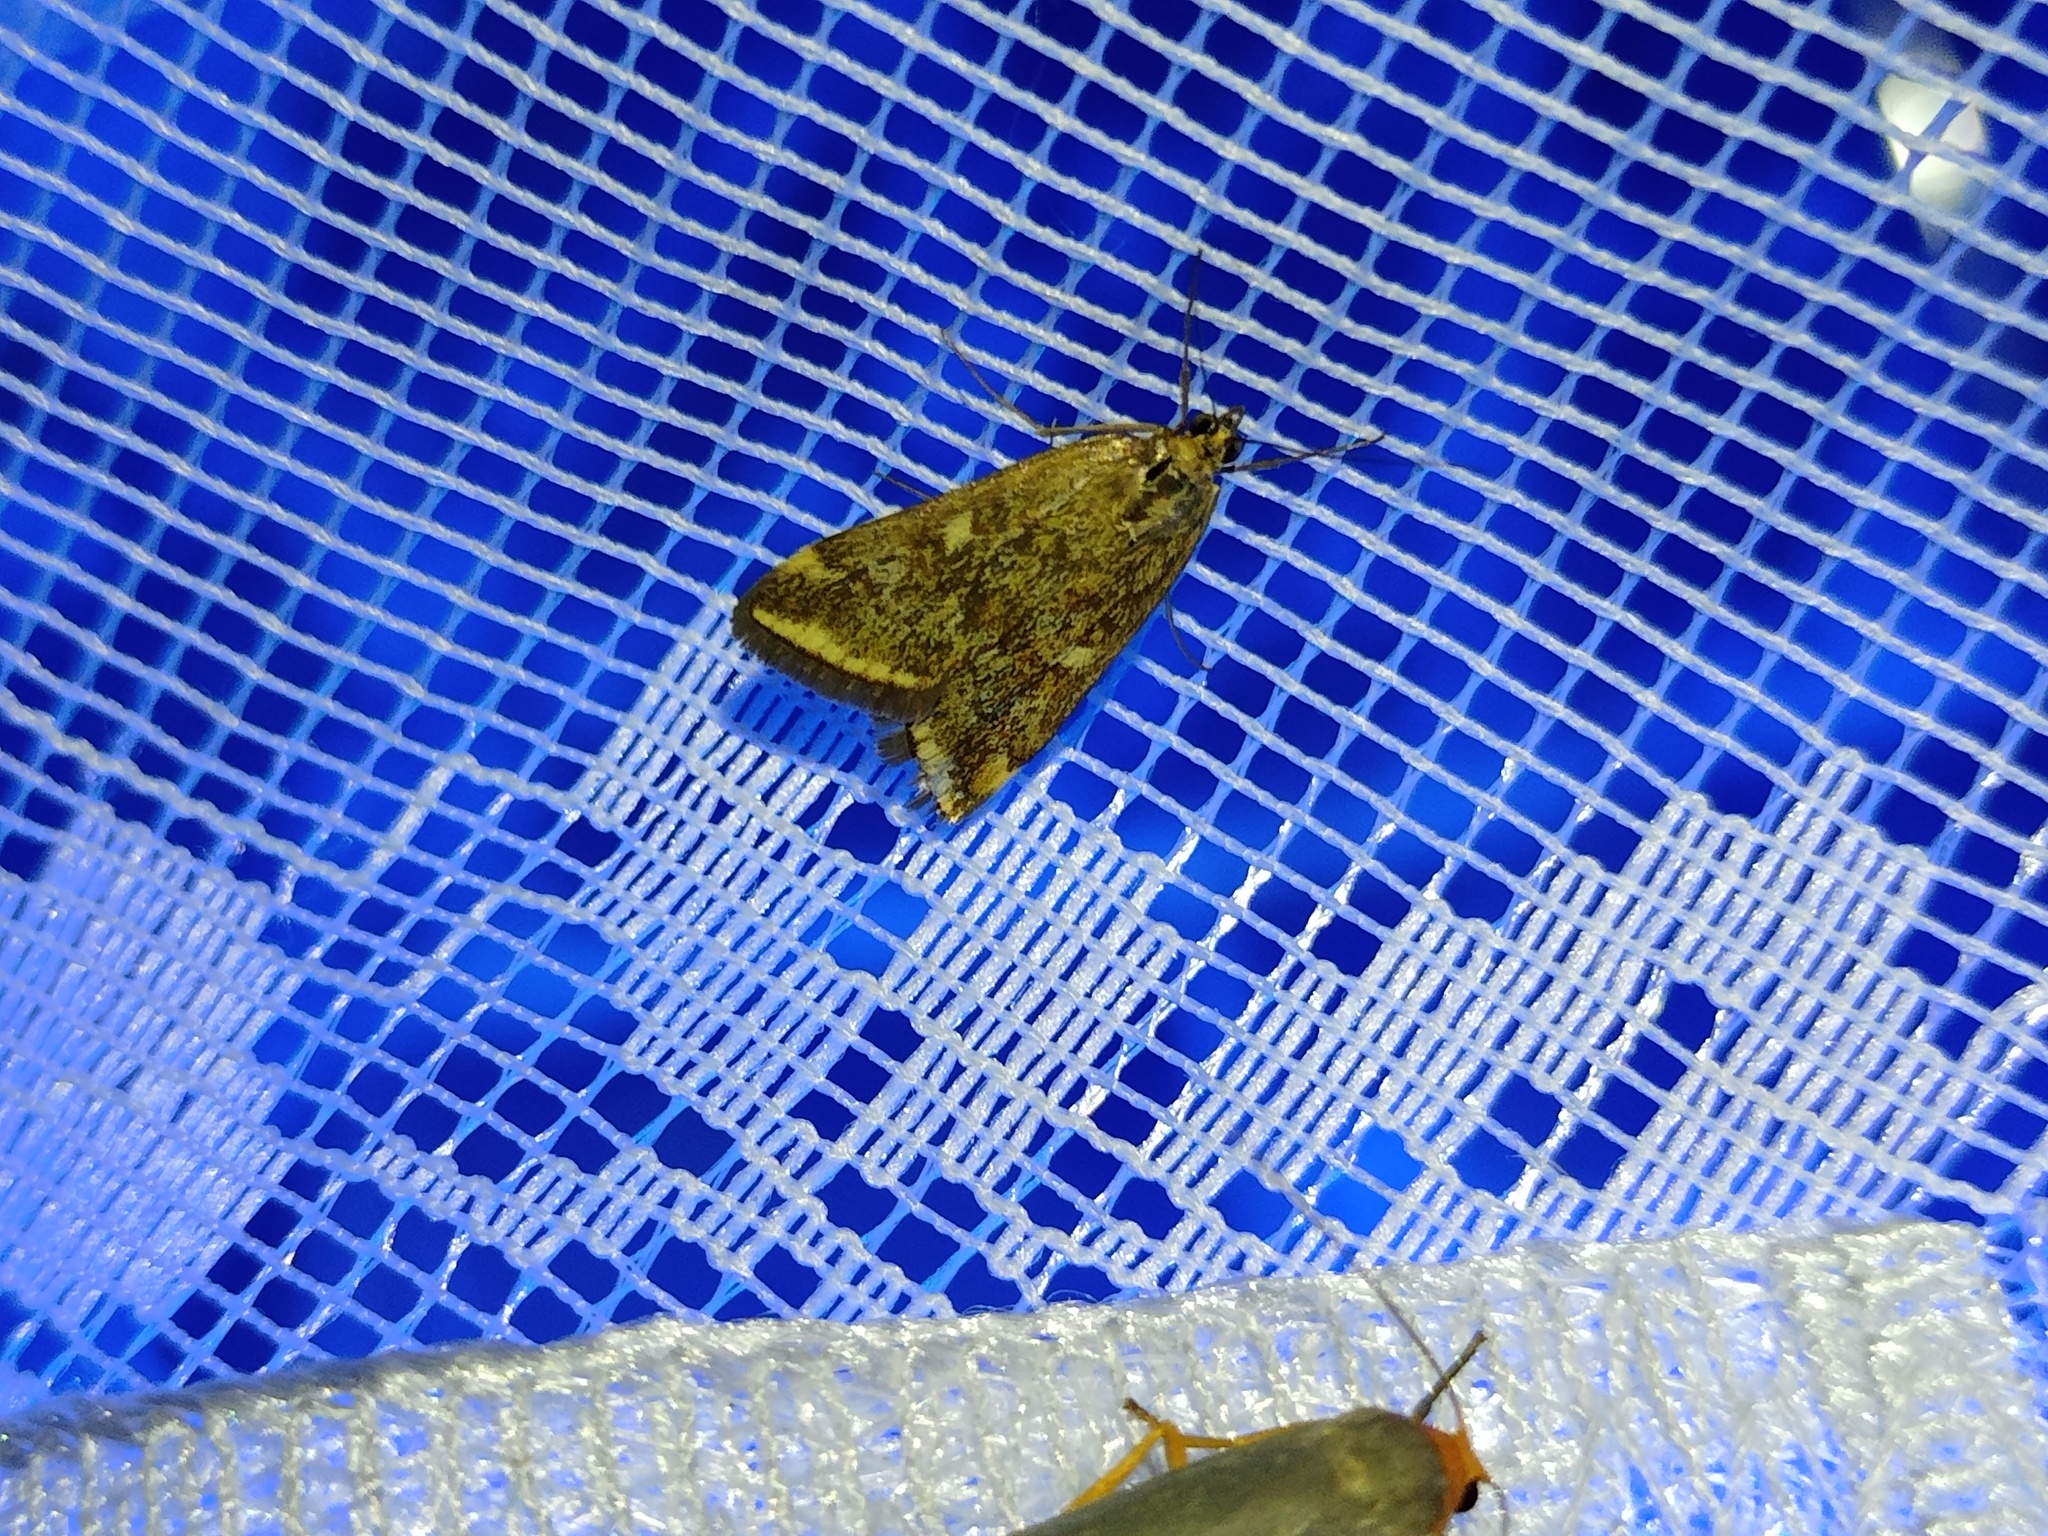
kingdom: Animalia
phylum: Arthropoda
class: Insecta
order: Lepidoptera
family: Crambidae
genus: Loxostege
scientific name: Loxostege sticticalis
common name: Crambid moth
